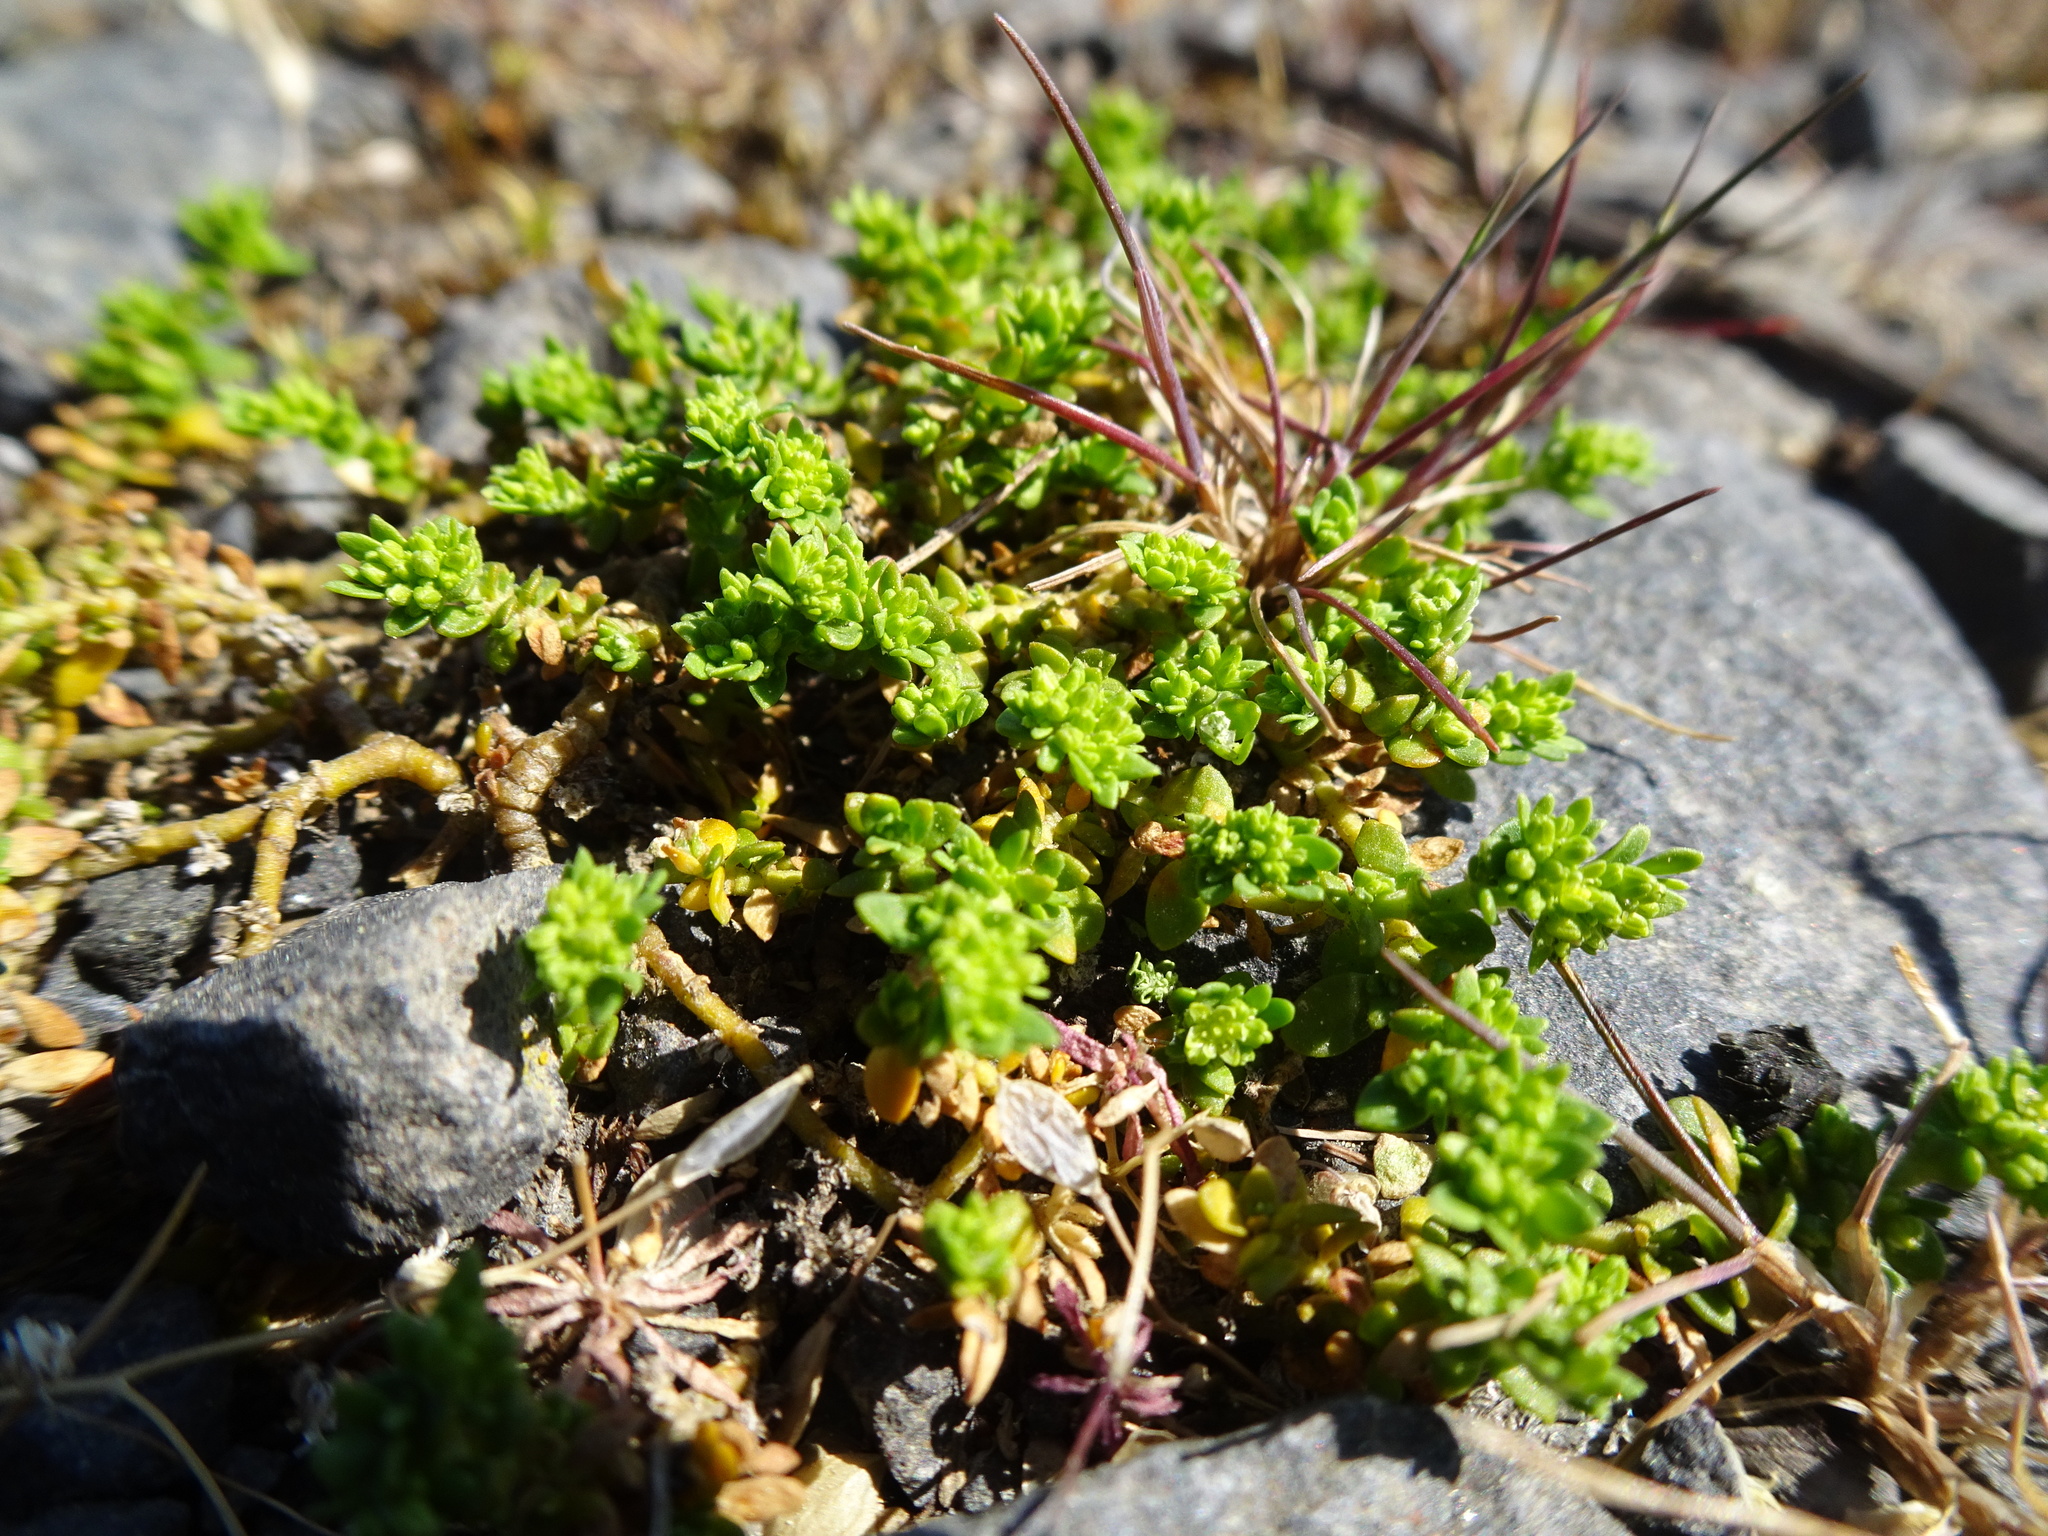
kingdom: Plantae
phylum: Tracheophyta
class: Magnoliopsida
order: Caryophyllales
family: Caryophyllaceae
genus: Herniaria
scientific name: Herniaria glabra
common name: Smooth rupturewort
